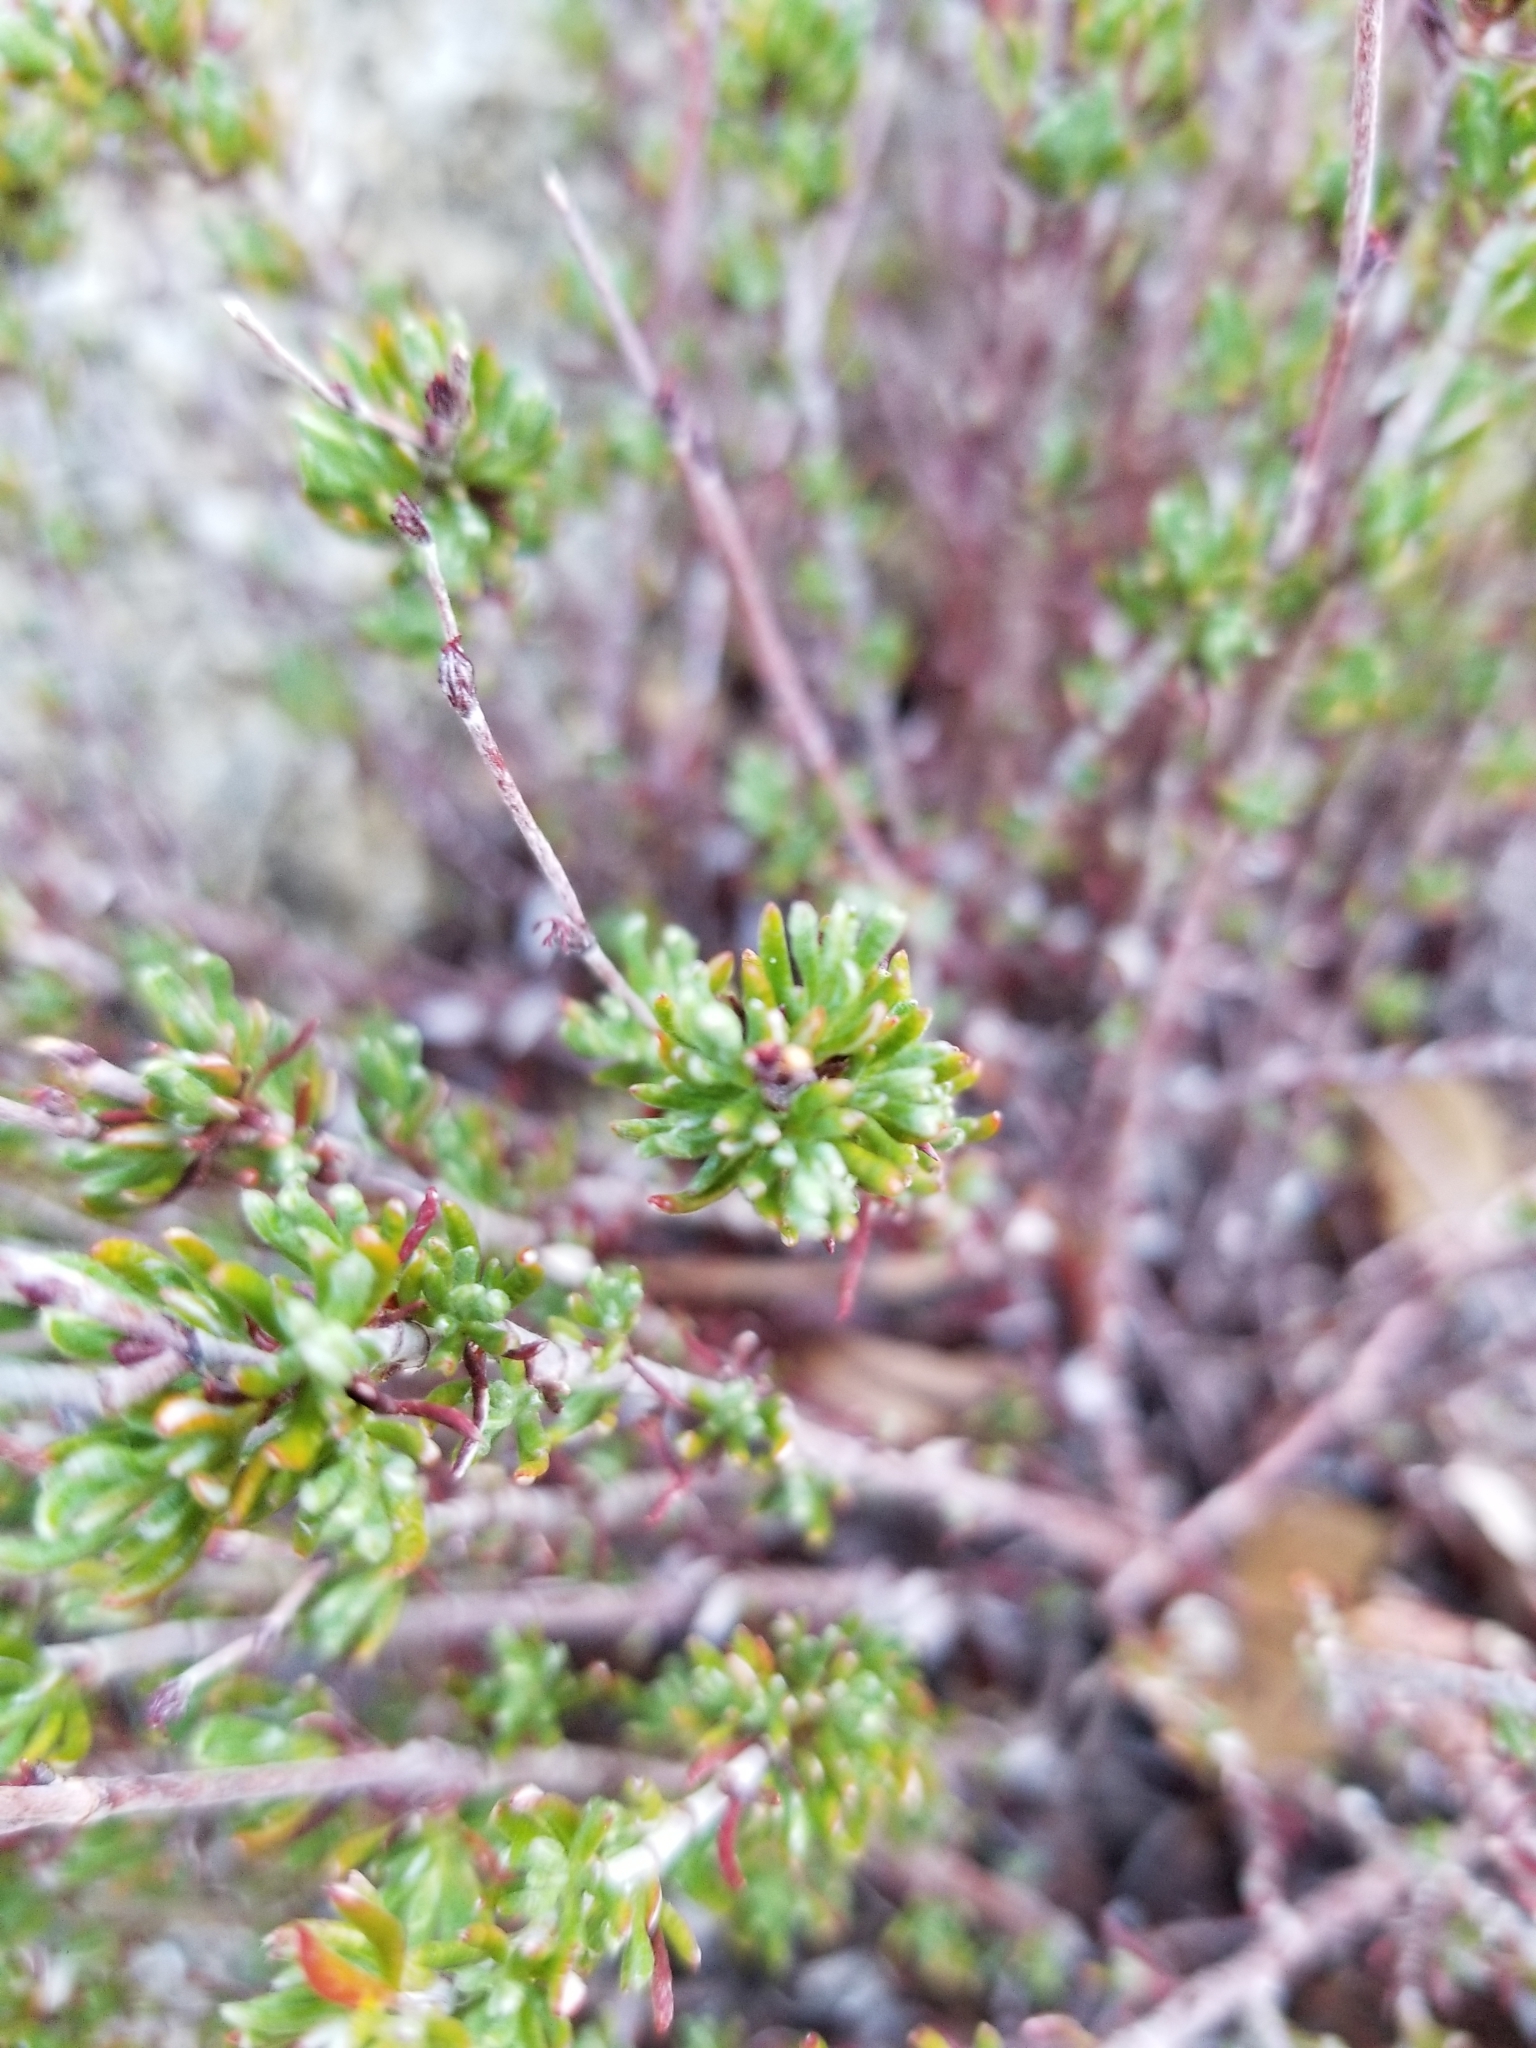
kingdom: Plantae
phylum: Tracheophyta
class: Magnoliopsida
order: Caryophyllales
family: Polygonaceae
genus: Eriogonum
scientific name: Eriogonum fasciculatum
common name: California wild buckwheat
